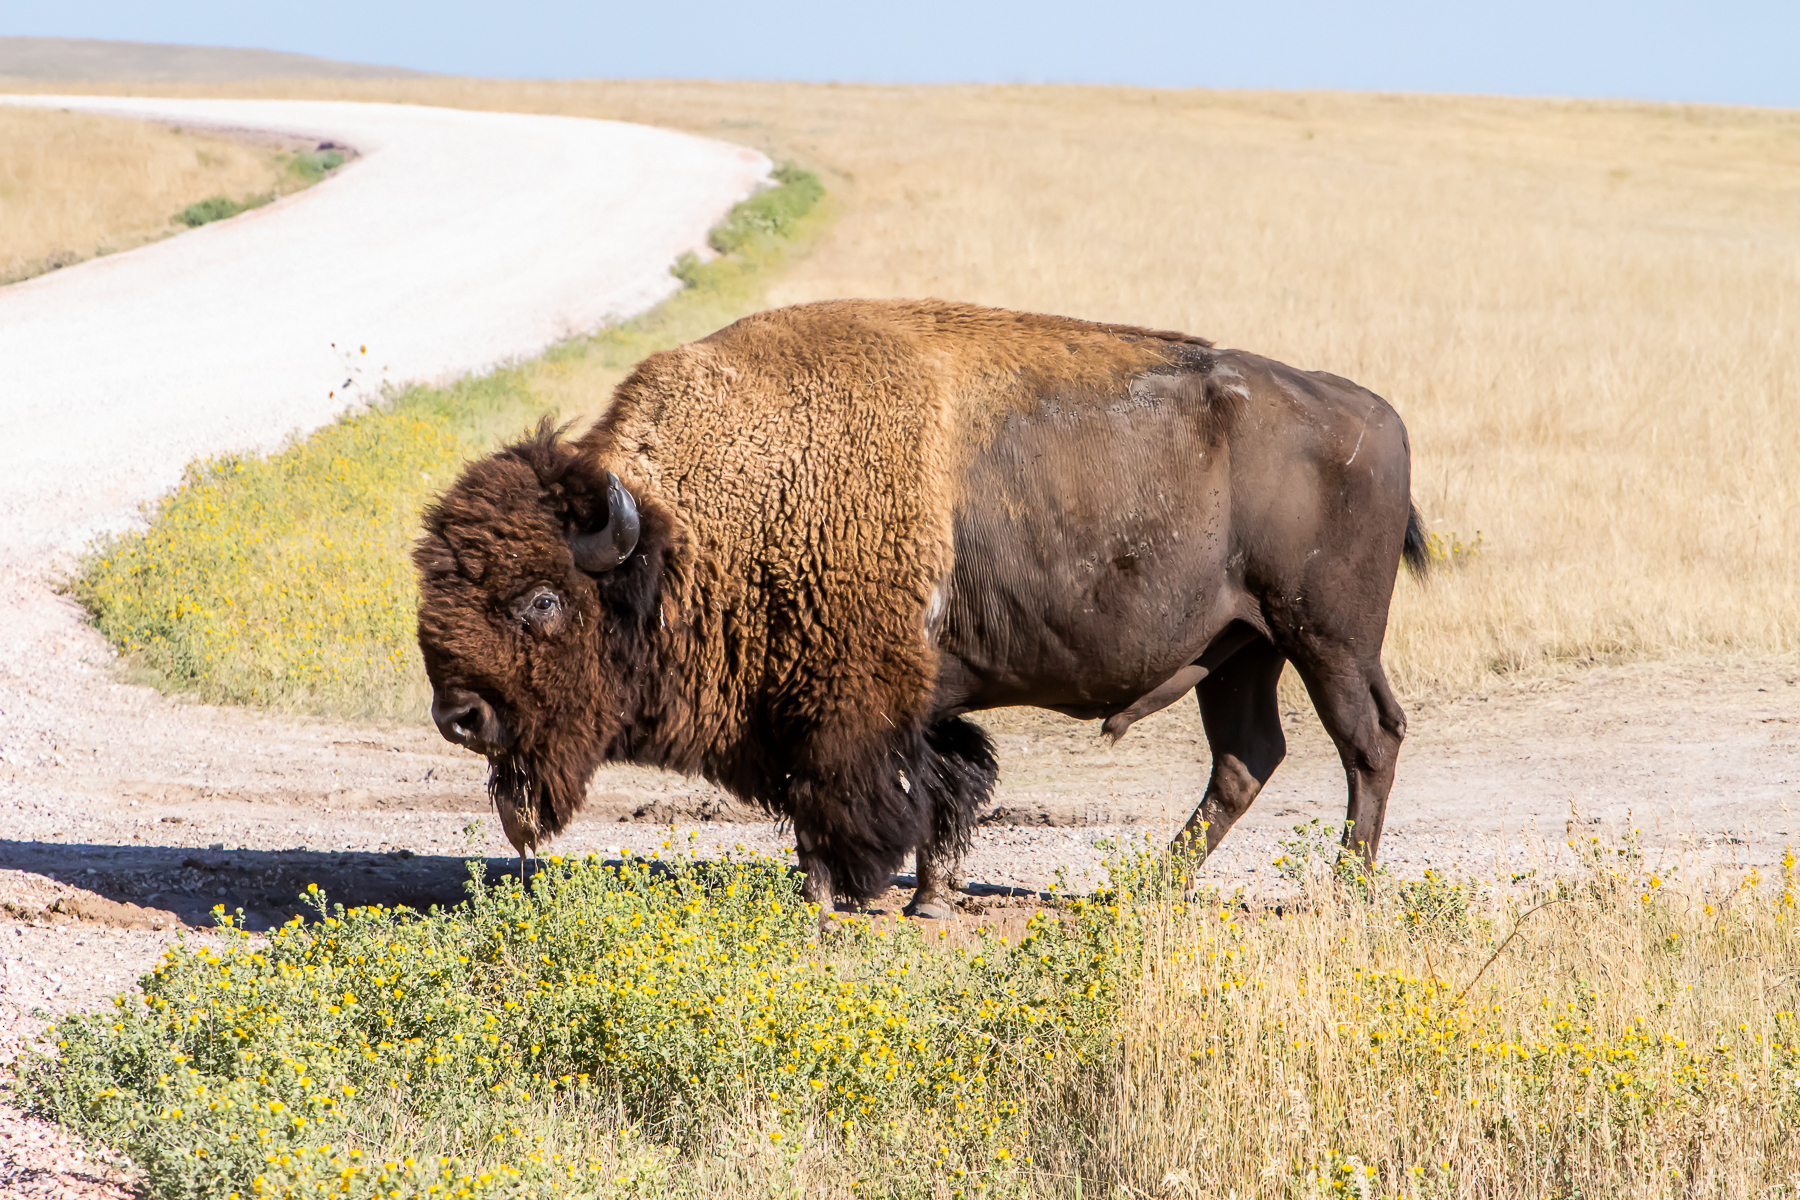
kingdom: Animalia
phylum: Chordata
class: Mammalia
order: Artiodactyla
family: Bovidae
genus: Bison
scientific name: Bison bison
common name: American bison
